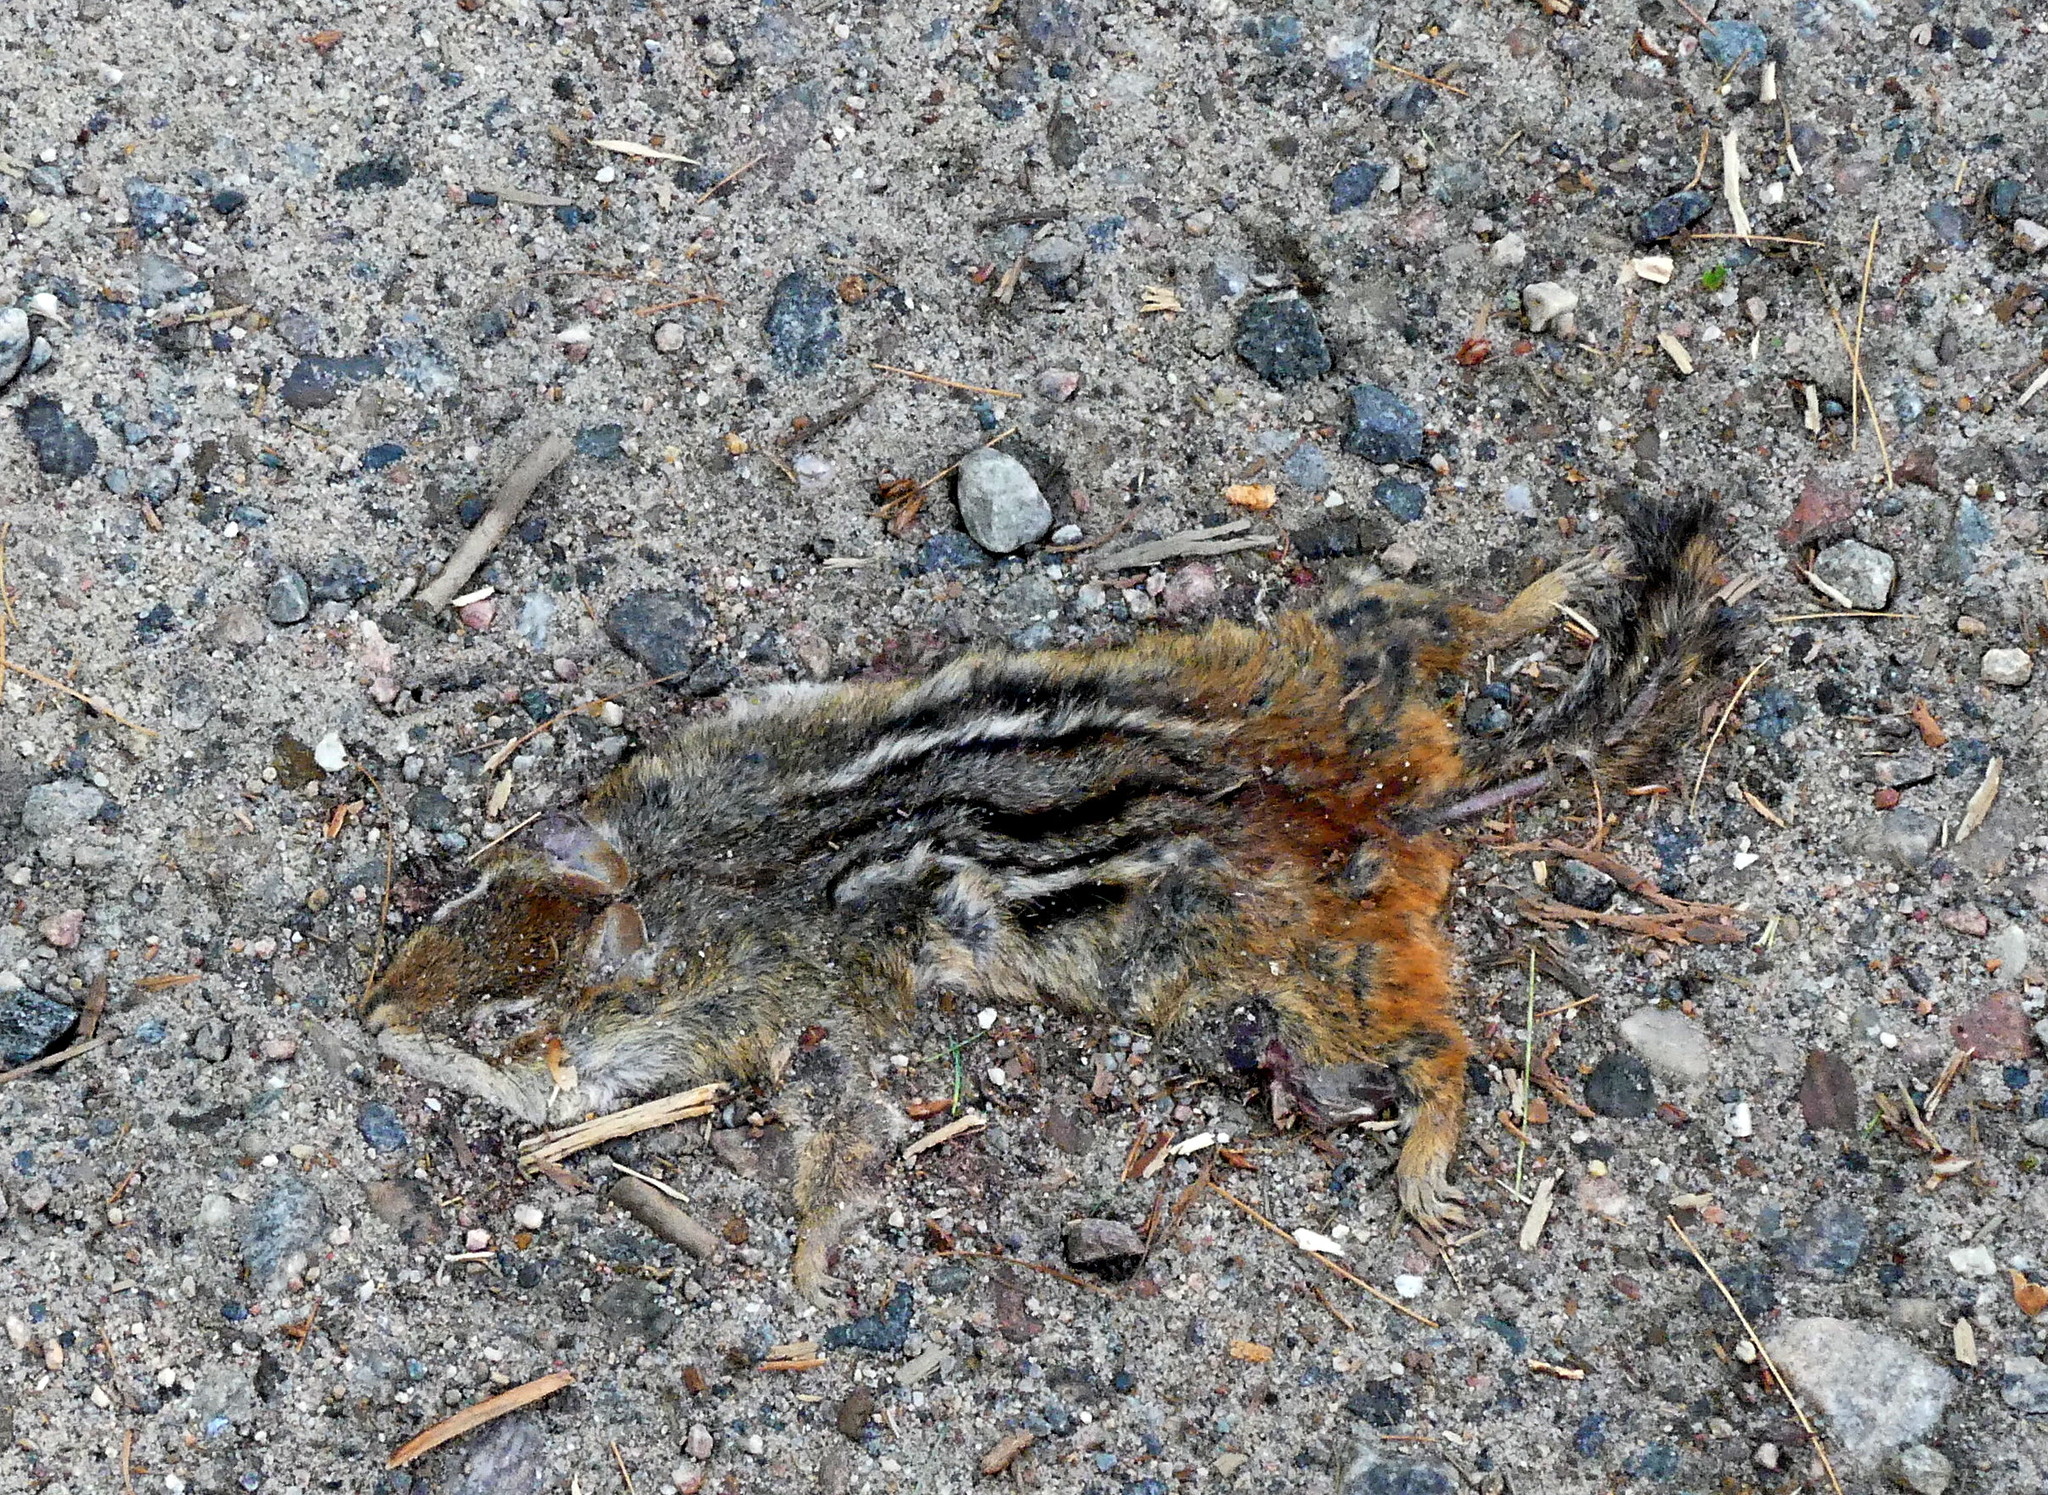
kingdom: Animalia
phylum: Chordata
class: Mammalia
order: Rodentia
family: Sciuridae
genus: Tamias
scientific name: Tamias striatus
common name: Eastern chipmunk
